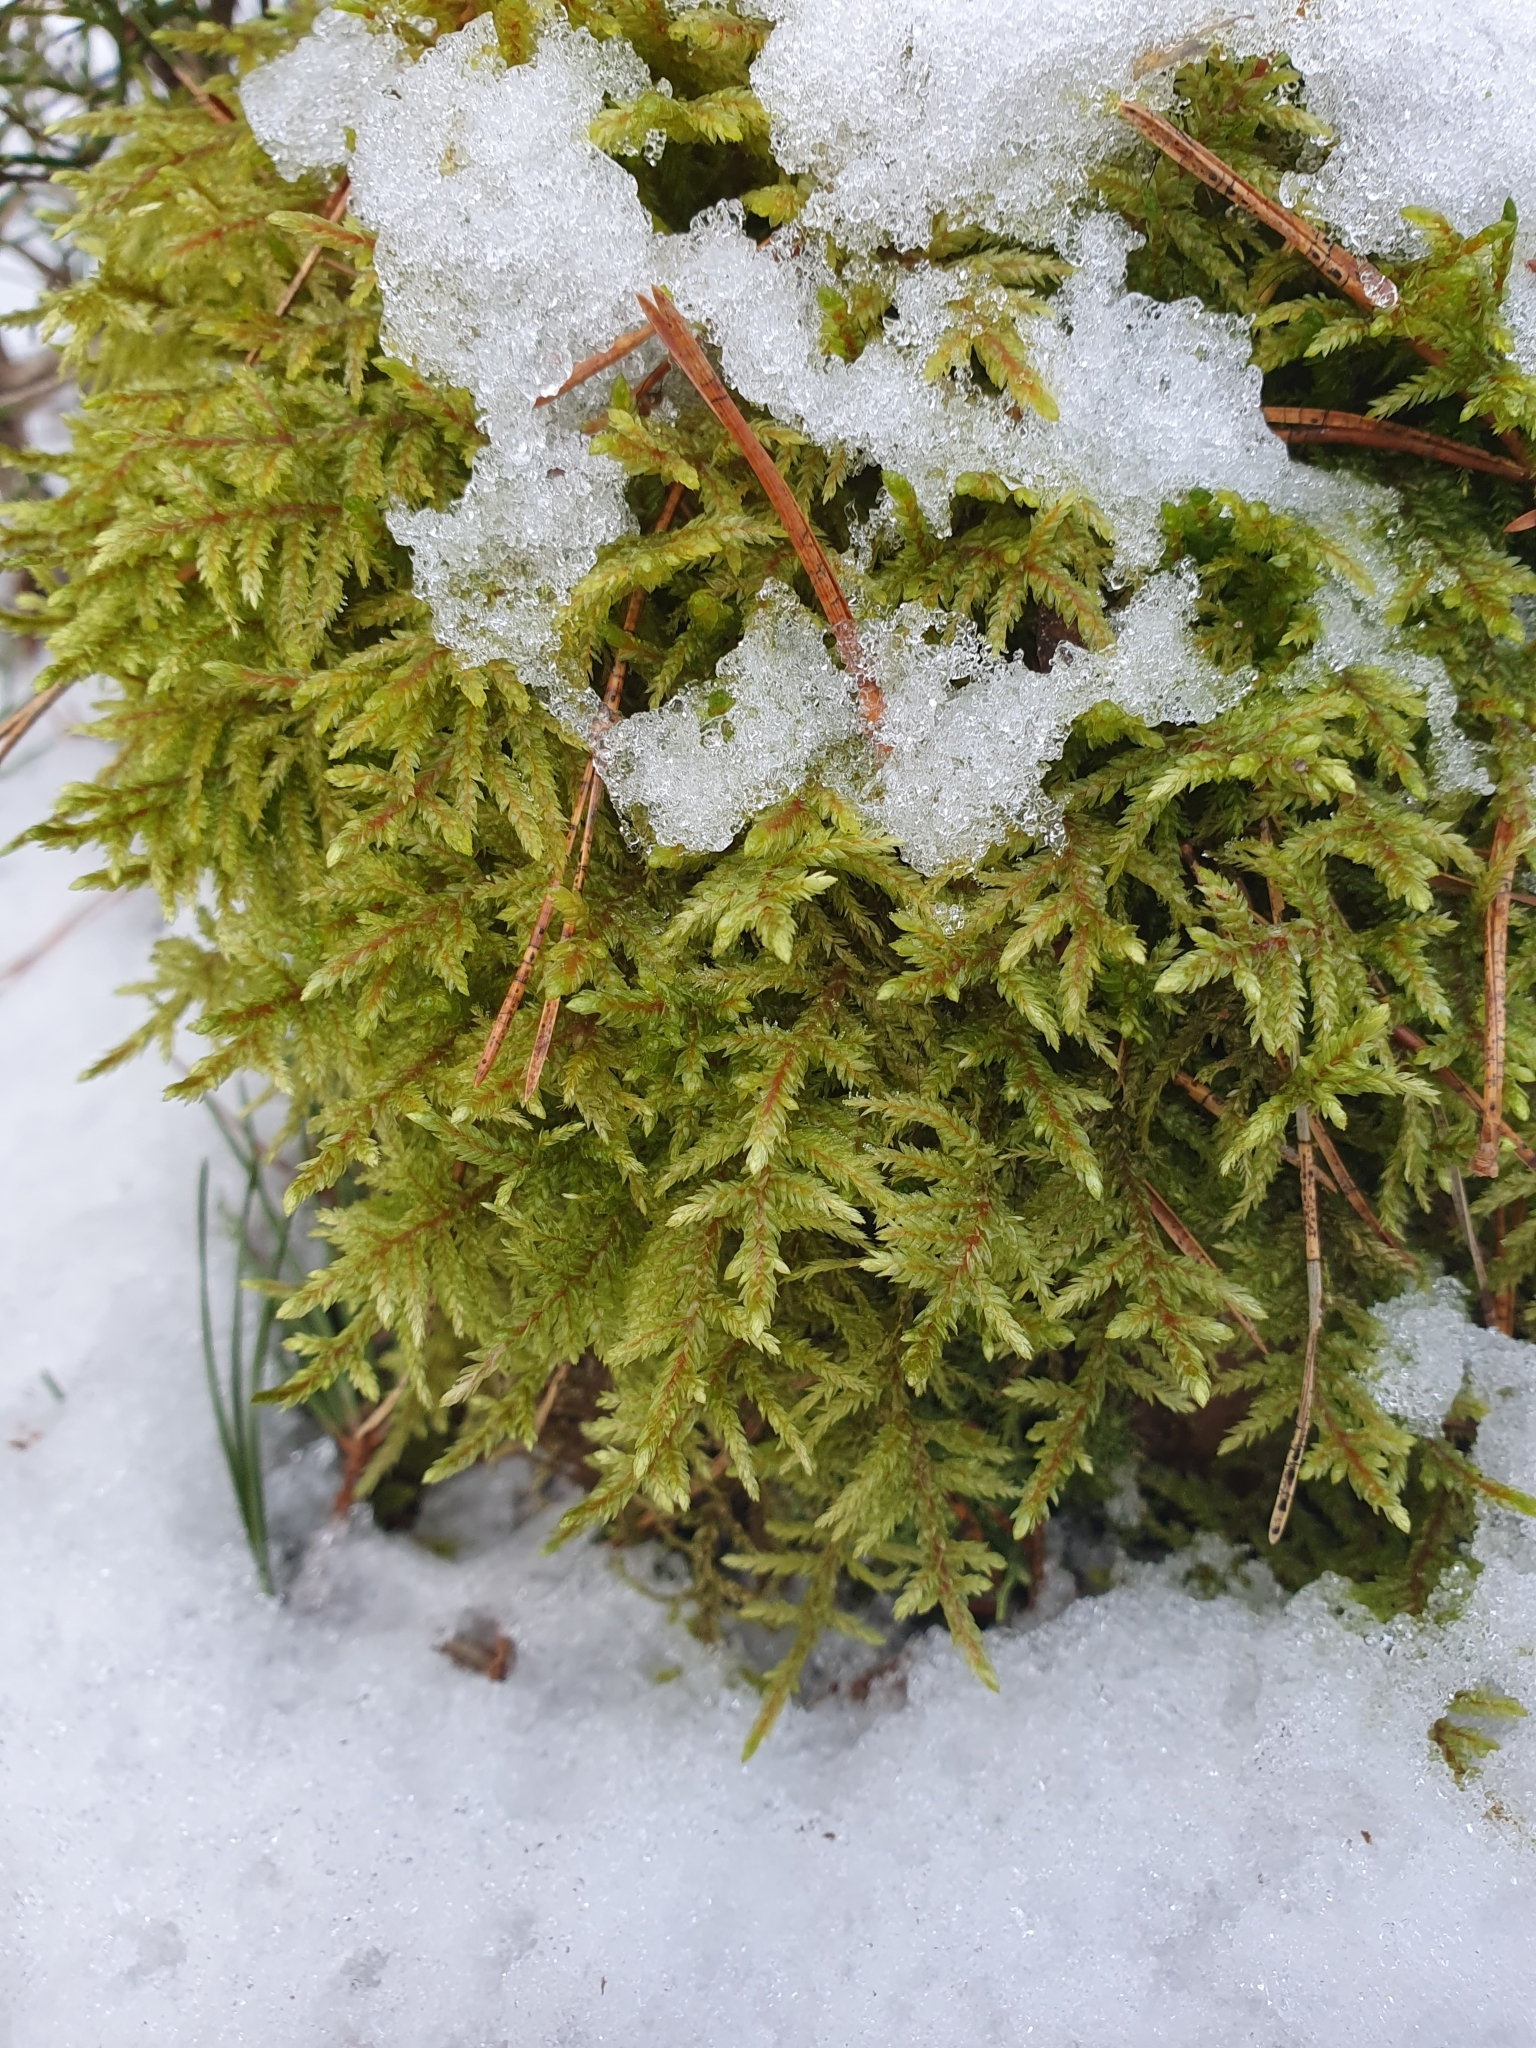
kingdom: Plantae
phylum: Bryophyta
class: Bryopsida
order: Hypnales
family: Hylocomiaceae
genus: Pleurozium
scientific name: Pleurozium schreberi
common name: Red-stemmed feather moss
